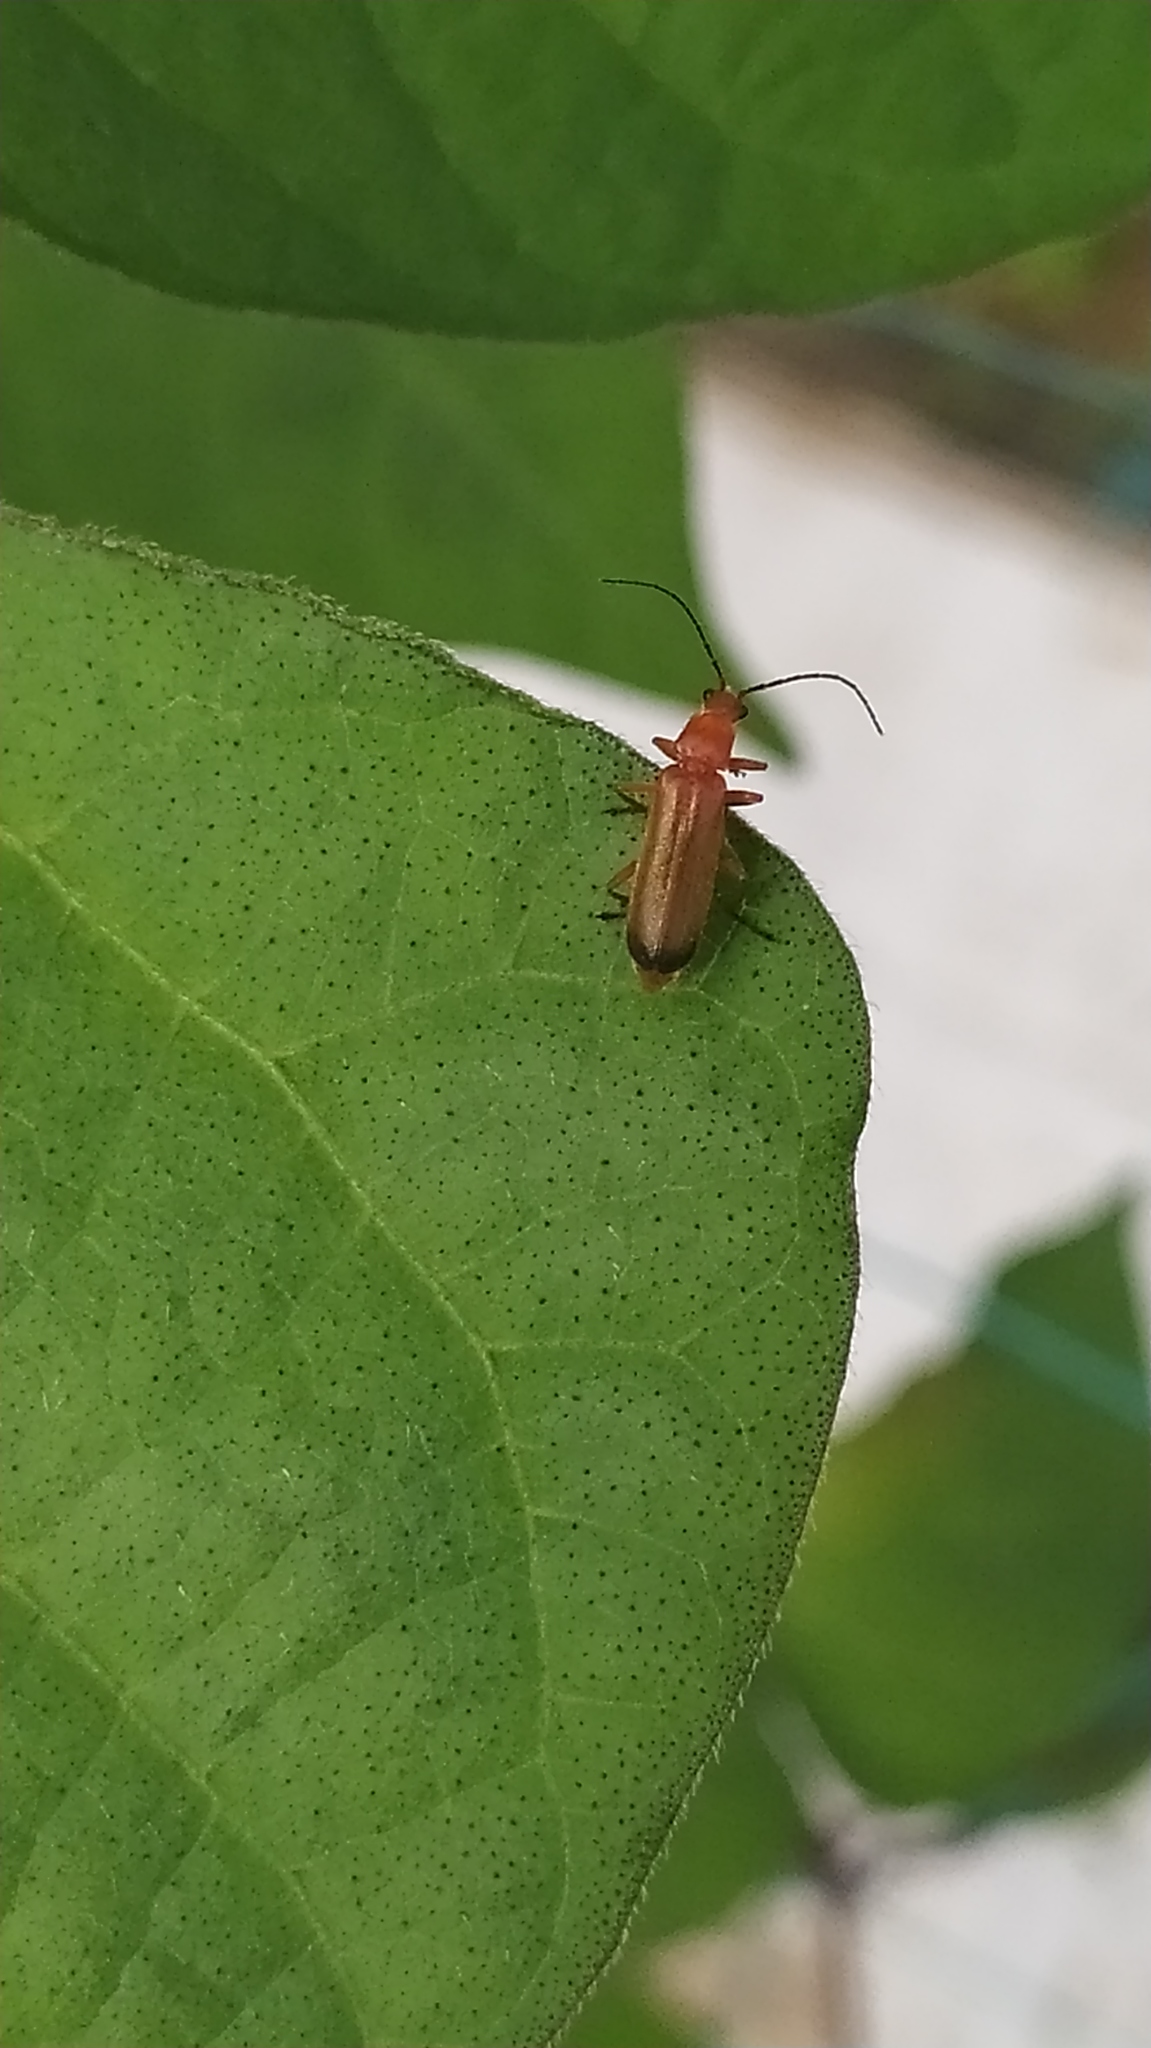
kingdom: Animalia
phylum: Arthropoda
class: Insecta
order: Coleoptera
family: Cantharidae
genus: Rhagonycha
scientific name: Rhagonycha fulva
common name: Common red soldier beetle
